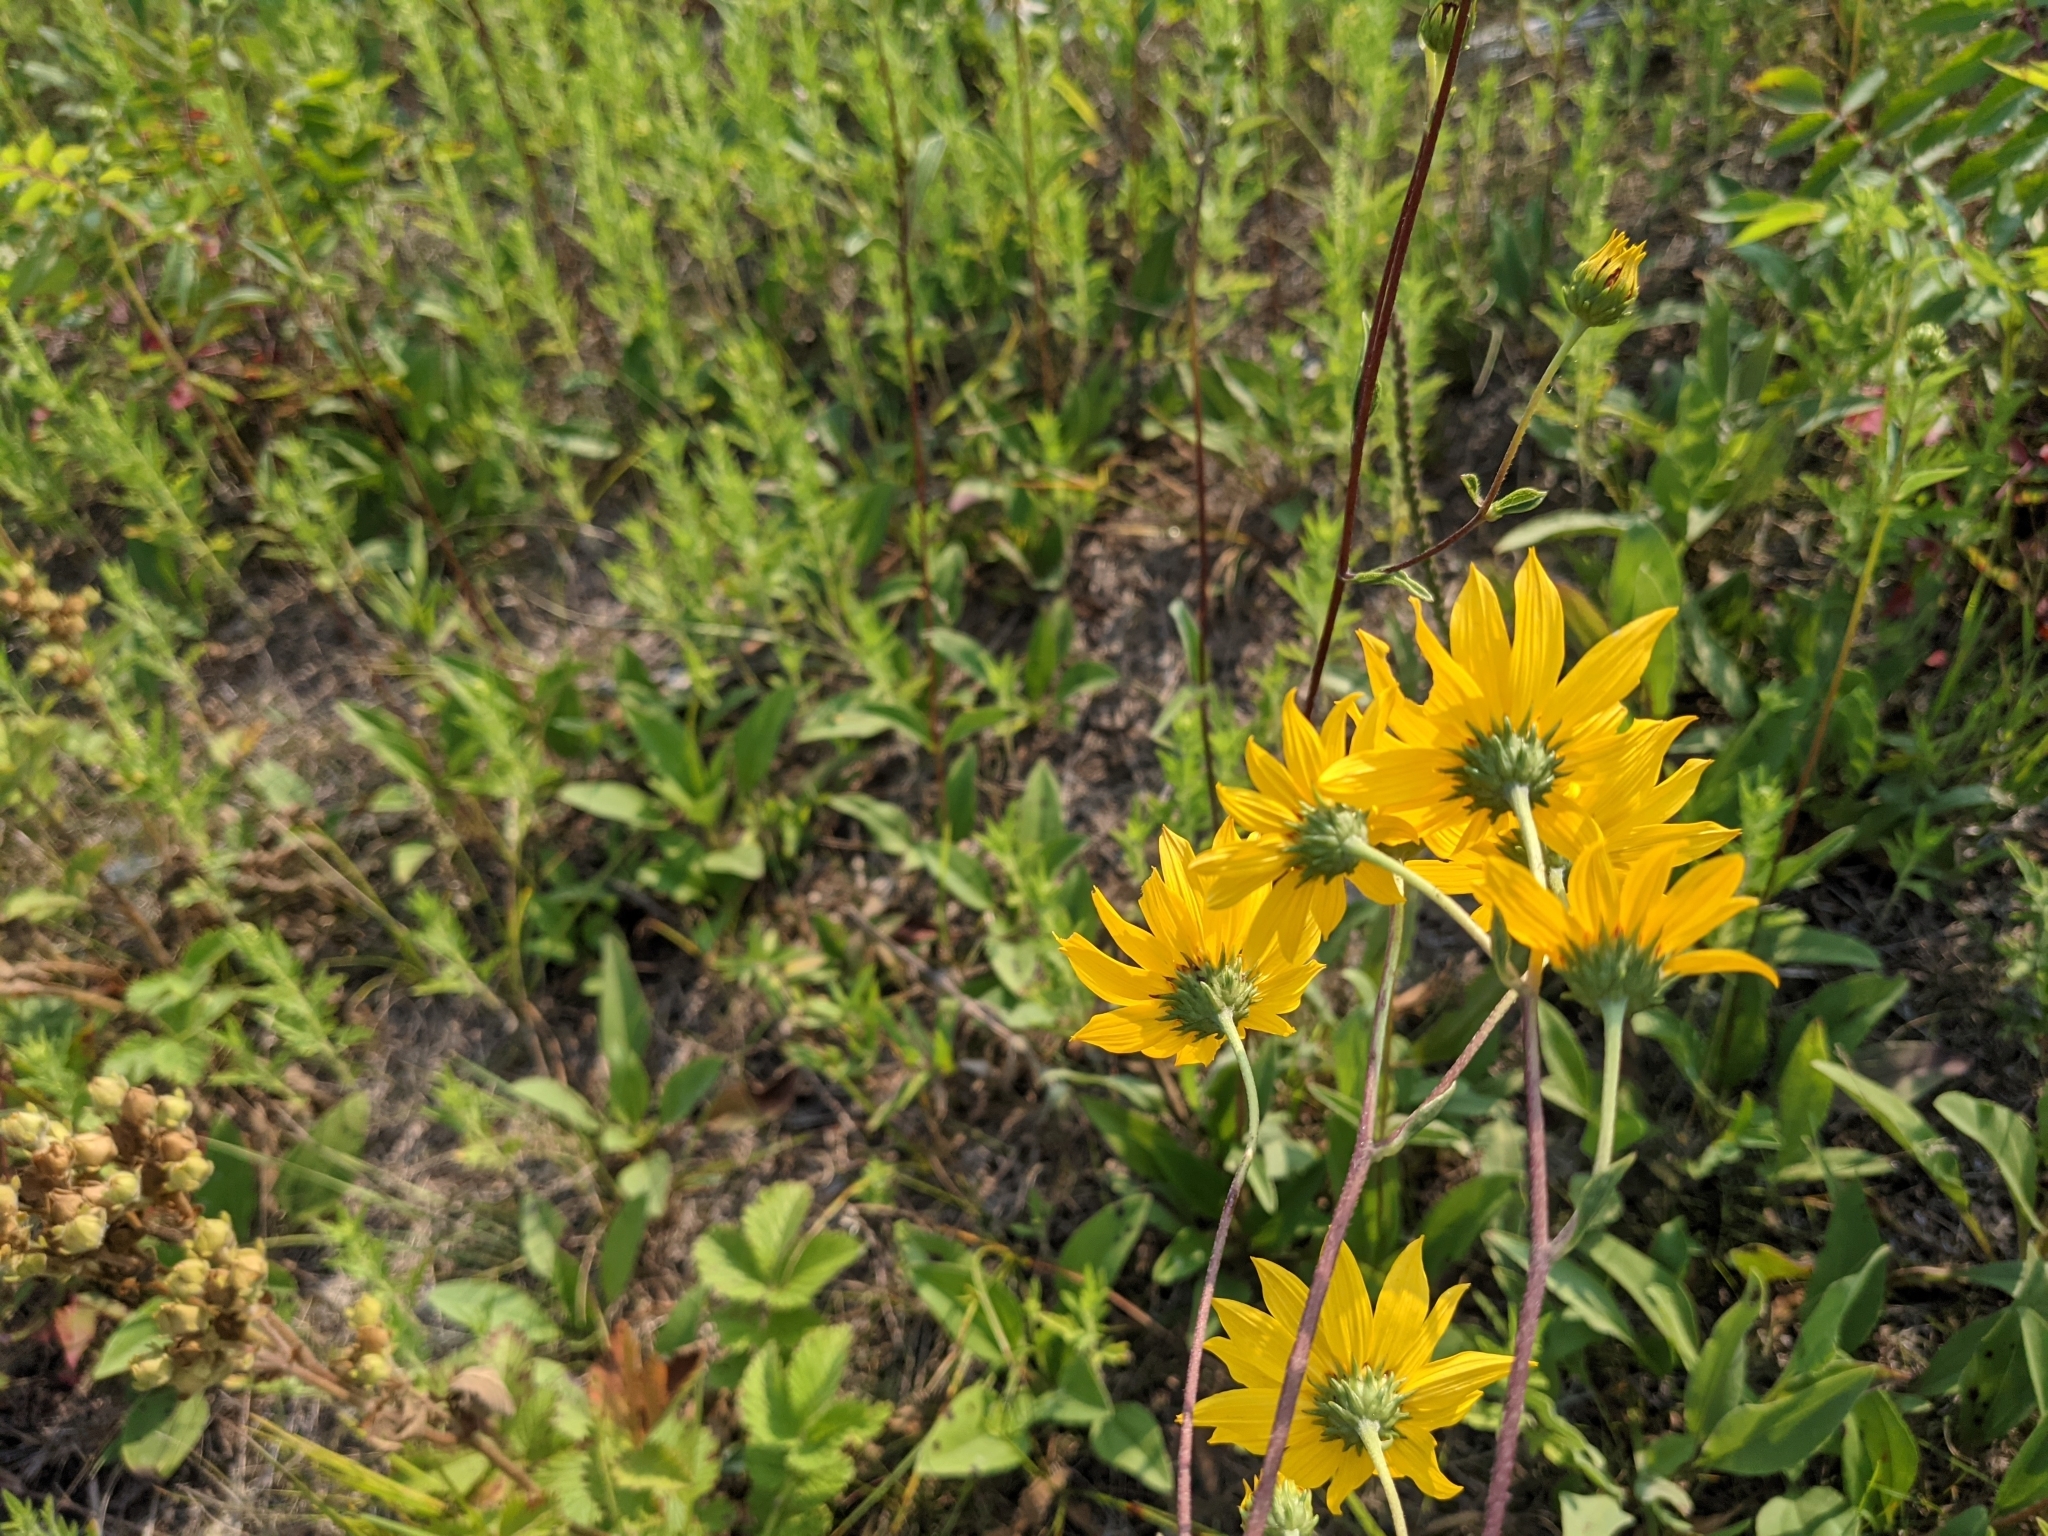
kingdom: Plantae
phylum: Tracheophyta
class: Magnoliopsida
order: Asterales
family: Asteraceae
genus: Helianthus
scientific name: Helianthus occidentalis
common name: Western sunflower
